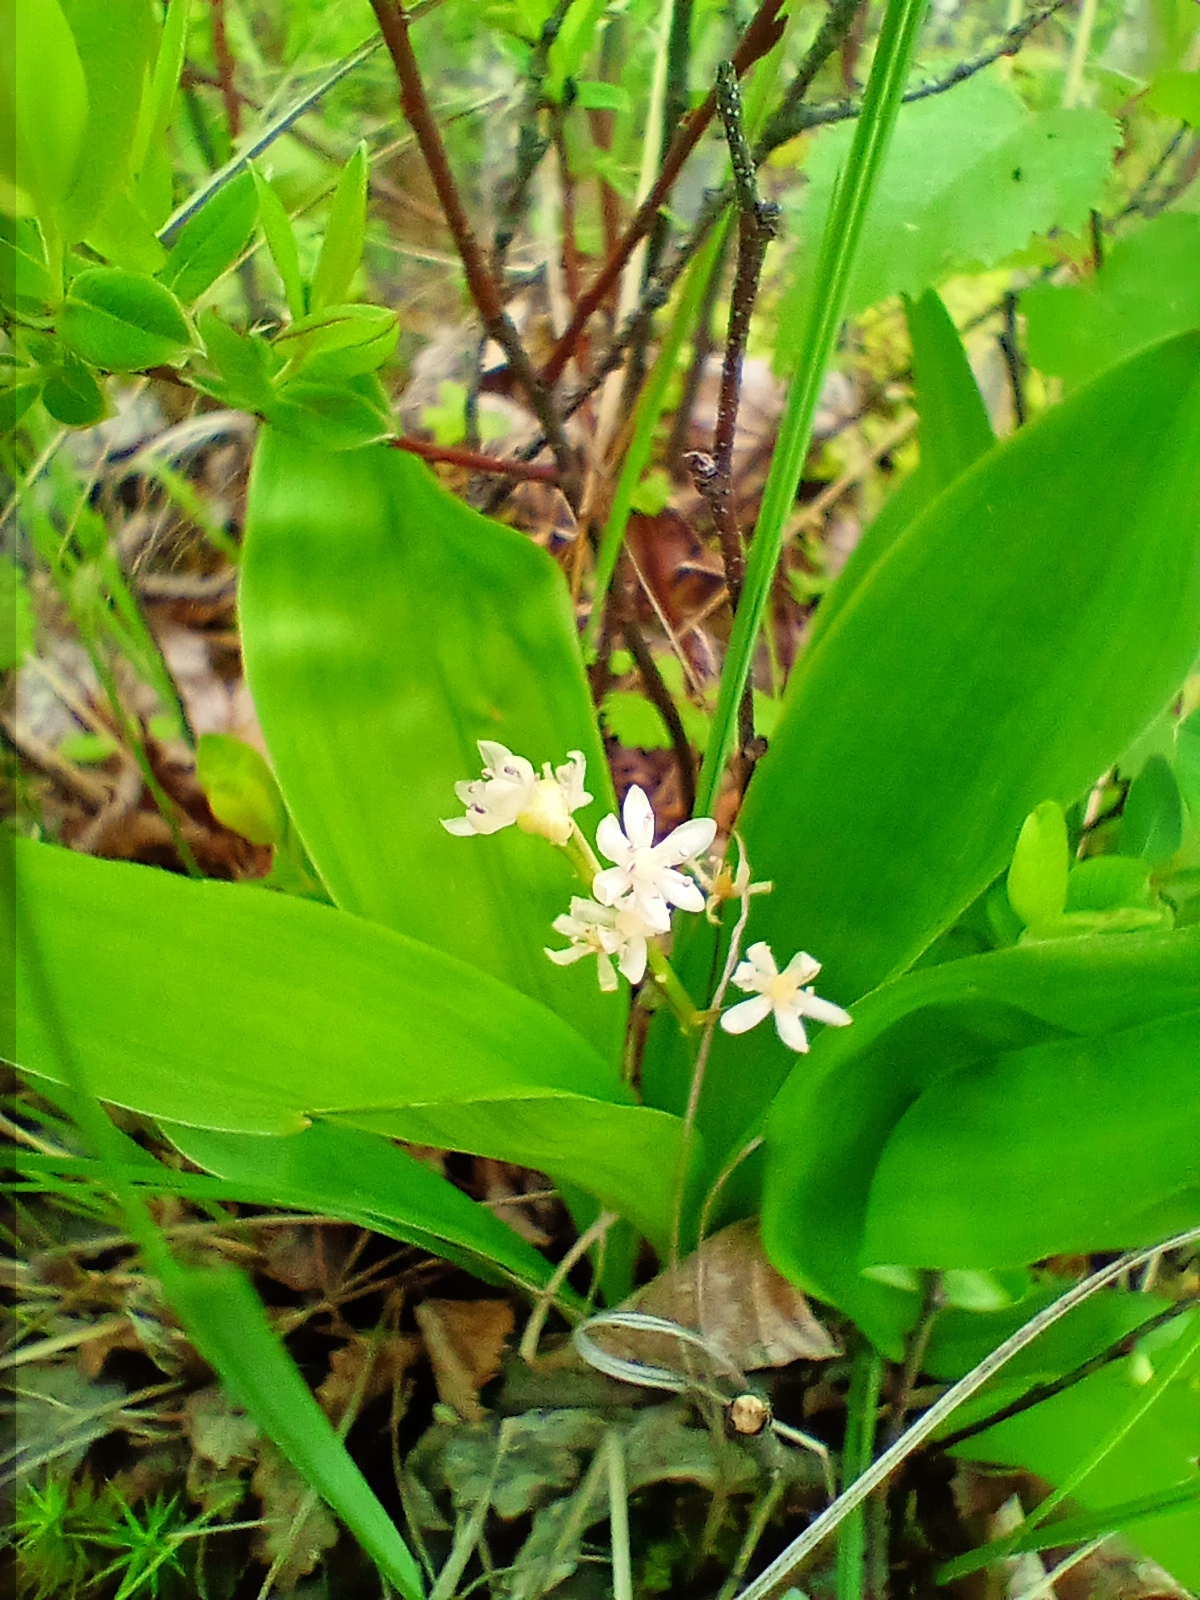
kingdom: Plantae
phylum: Tracheophyta
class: Liliopsida
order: Asparagales
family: Asparagaceae
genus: Maianthemum
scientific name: Maianthemum trifolium
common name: Swamp false solomon's seal
